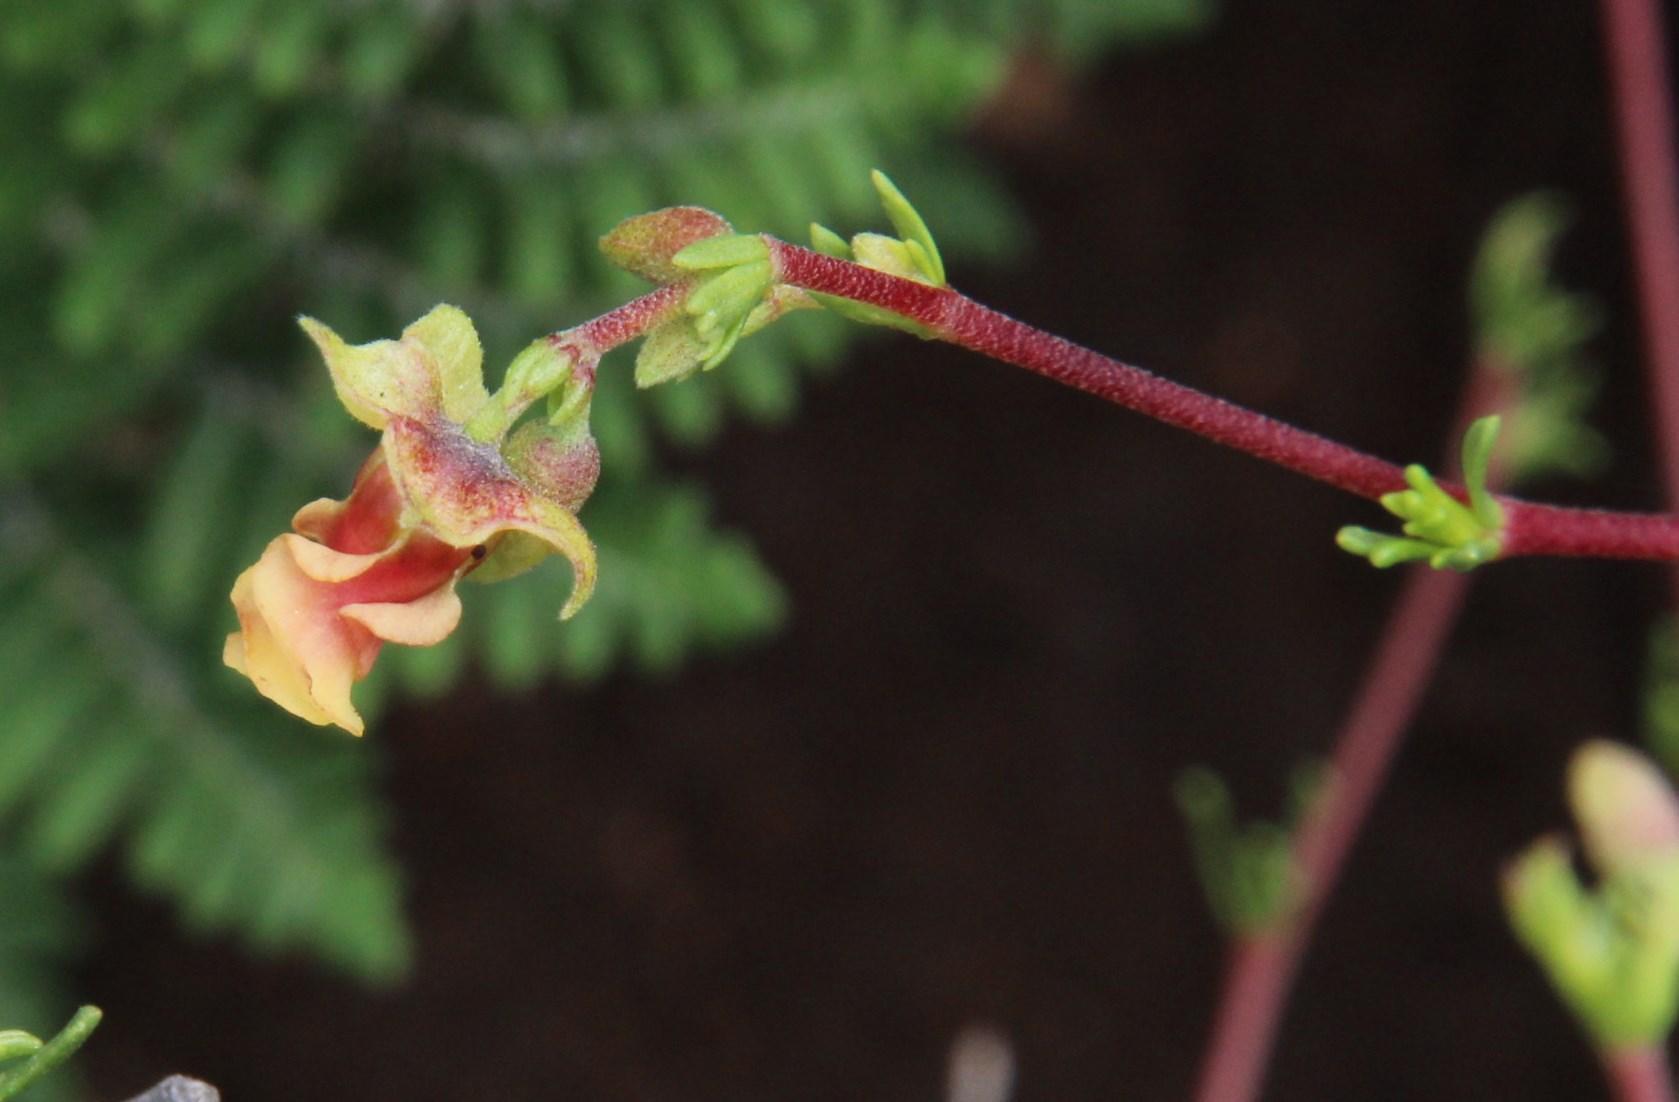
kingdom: Plantae
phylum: Tracheophyta
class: Magnoliopsida
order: Malvales
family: Malvaceae
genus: Hermannia
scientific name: Hermannia filifolia
